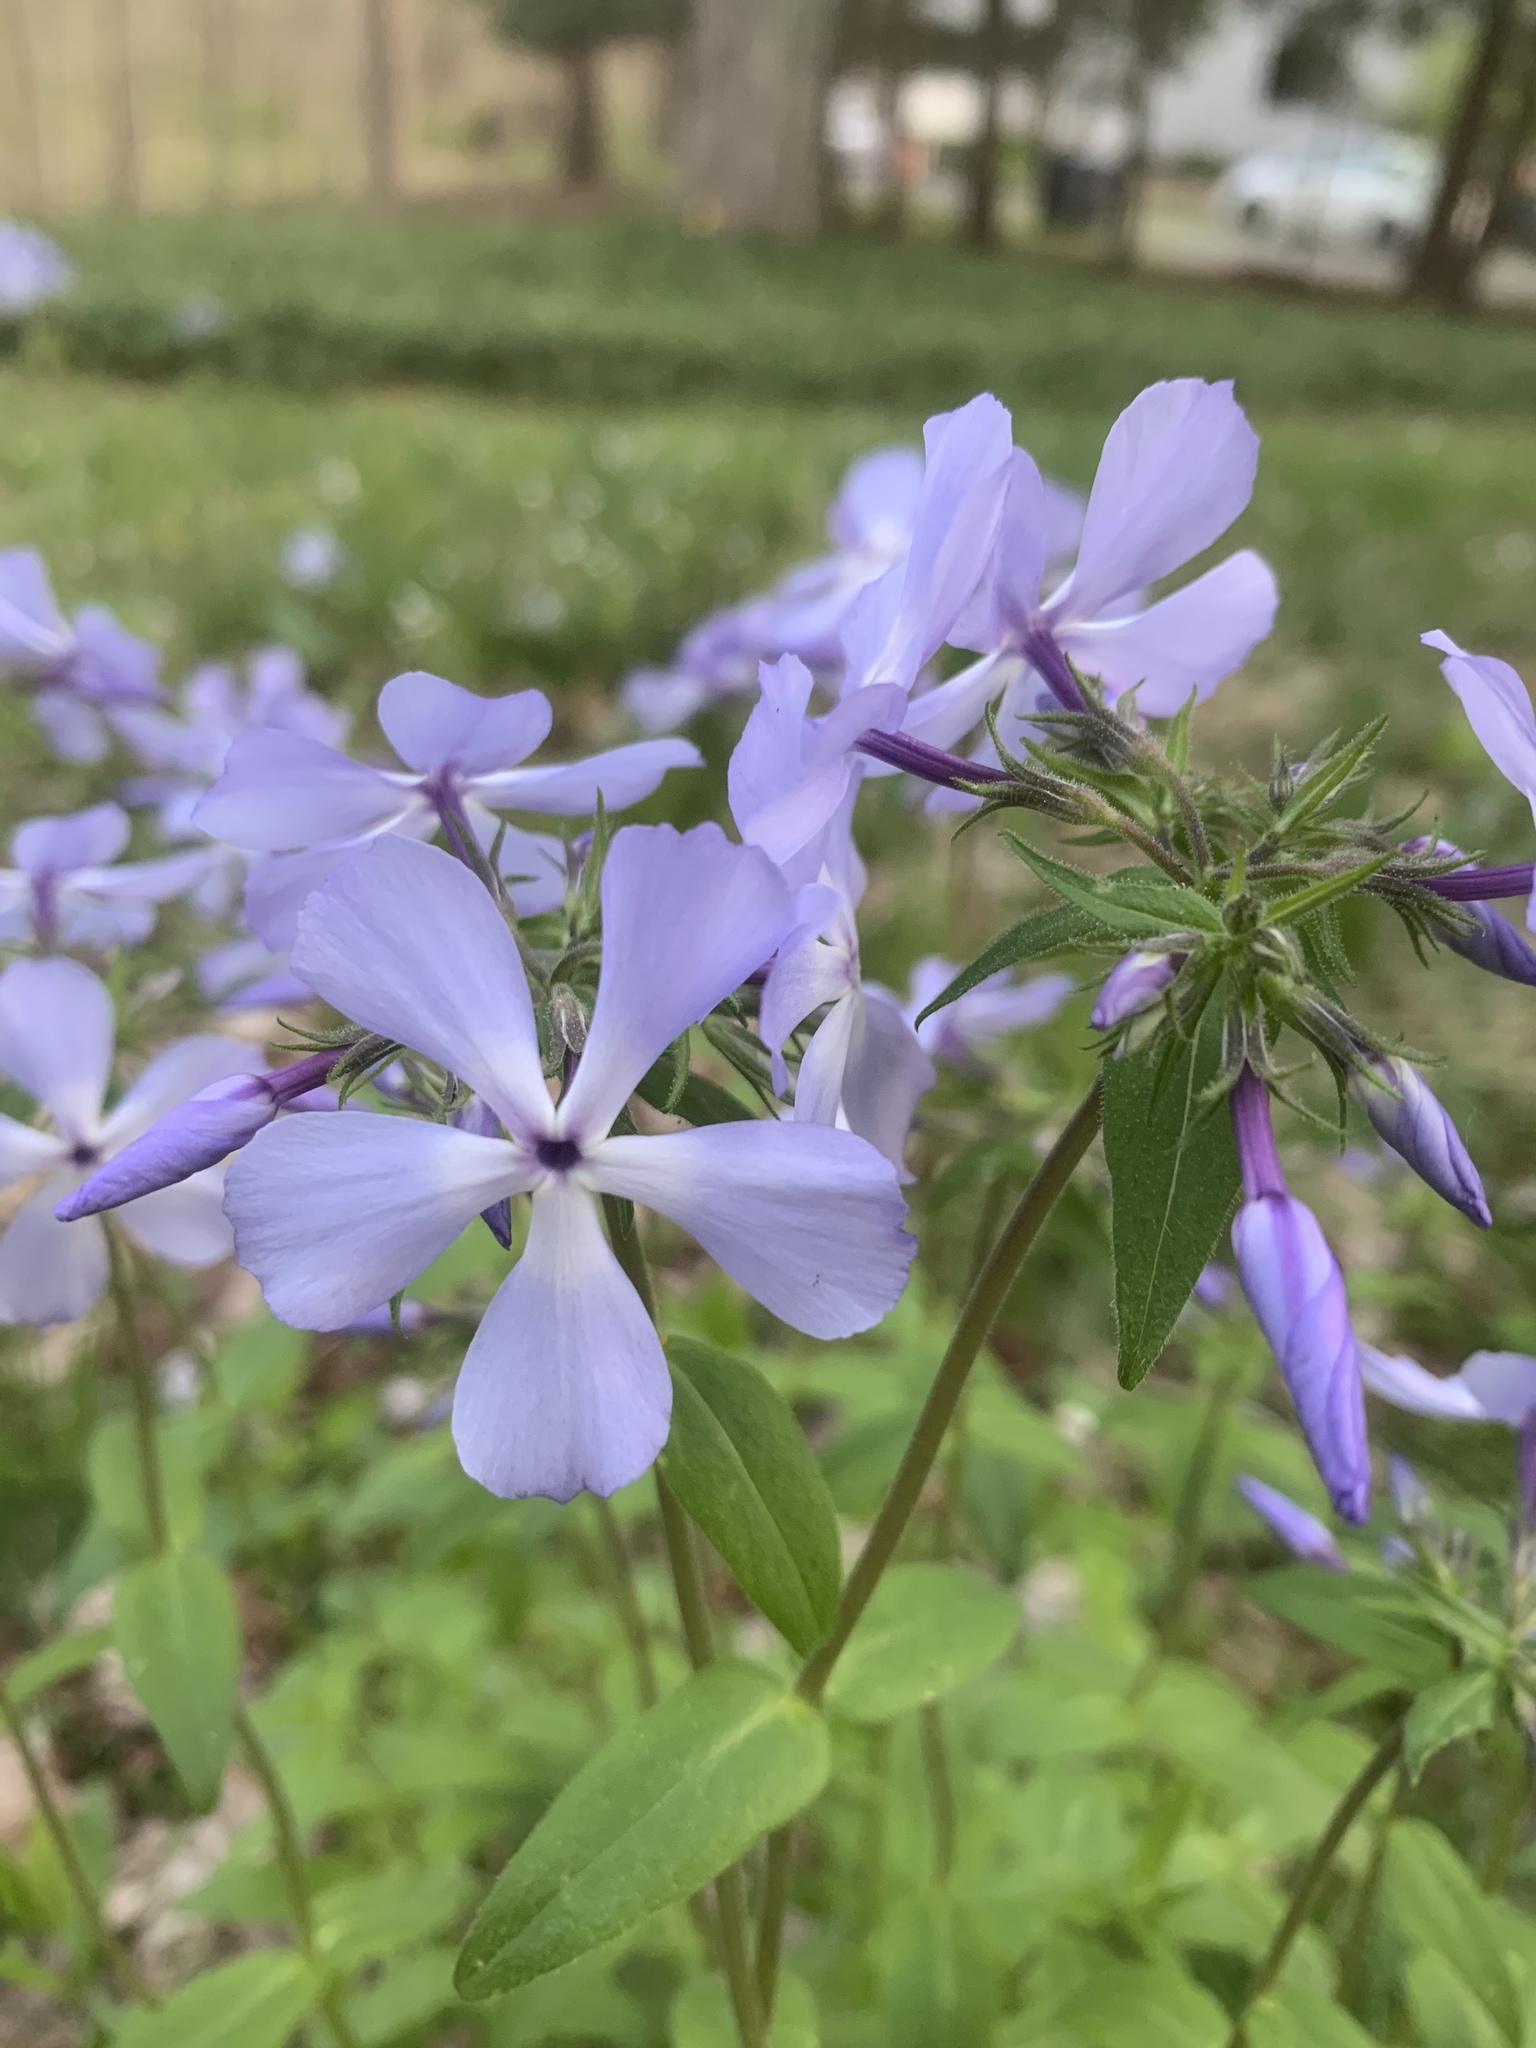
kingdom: Plantae
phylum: Tracheophyta
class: Magnoliopsida
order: Ericales
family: Polemoniaceae
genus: Phlox
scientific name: Phlox divaricata
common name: Blue phlox
